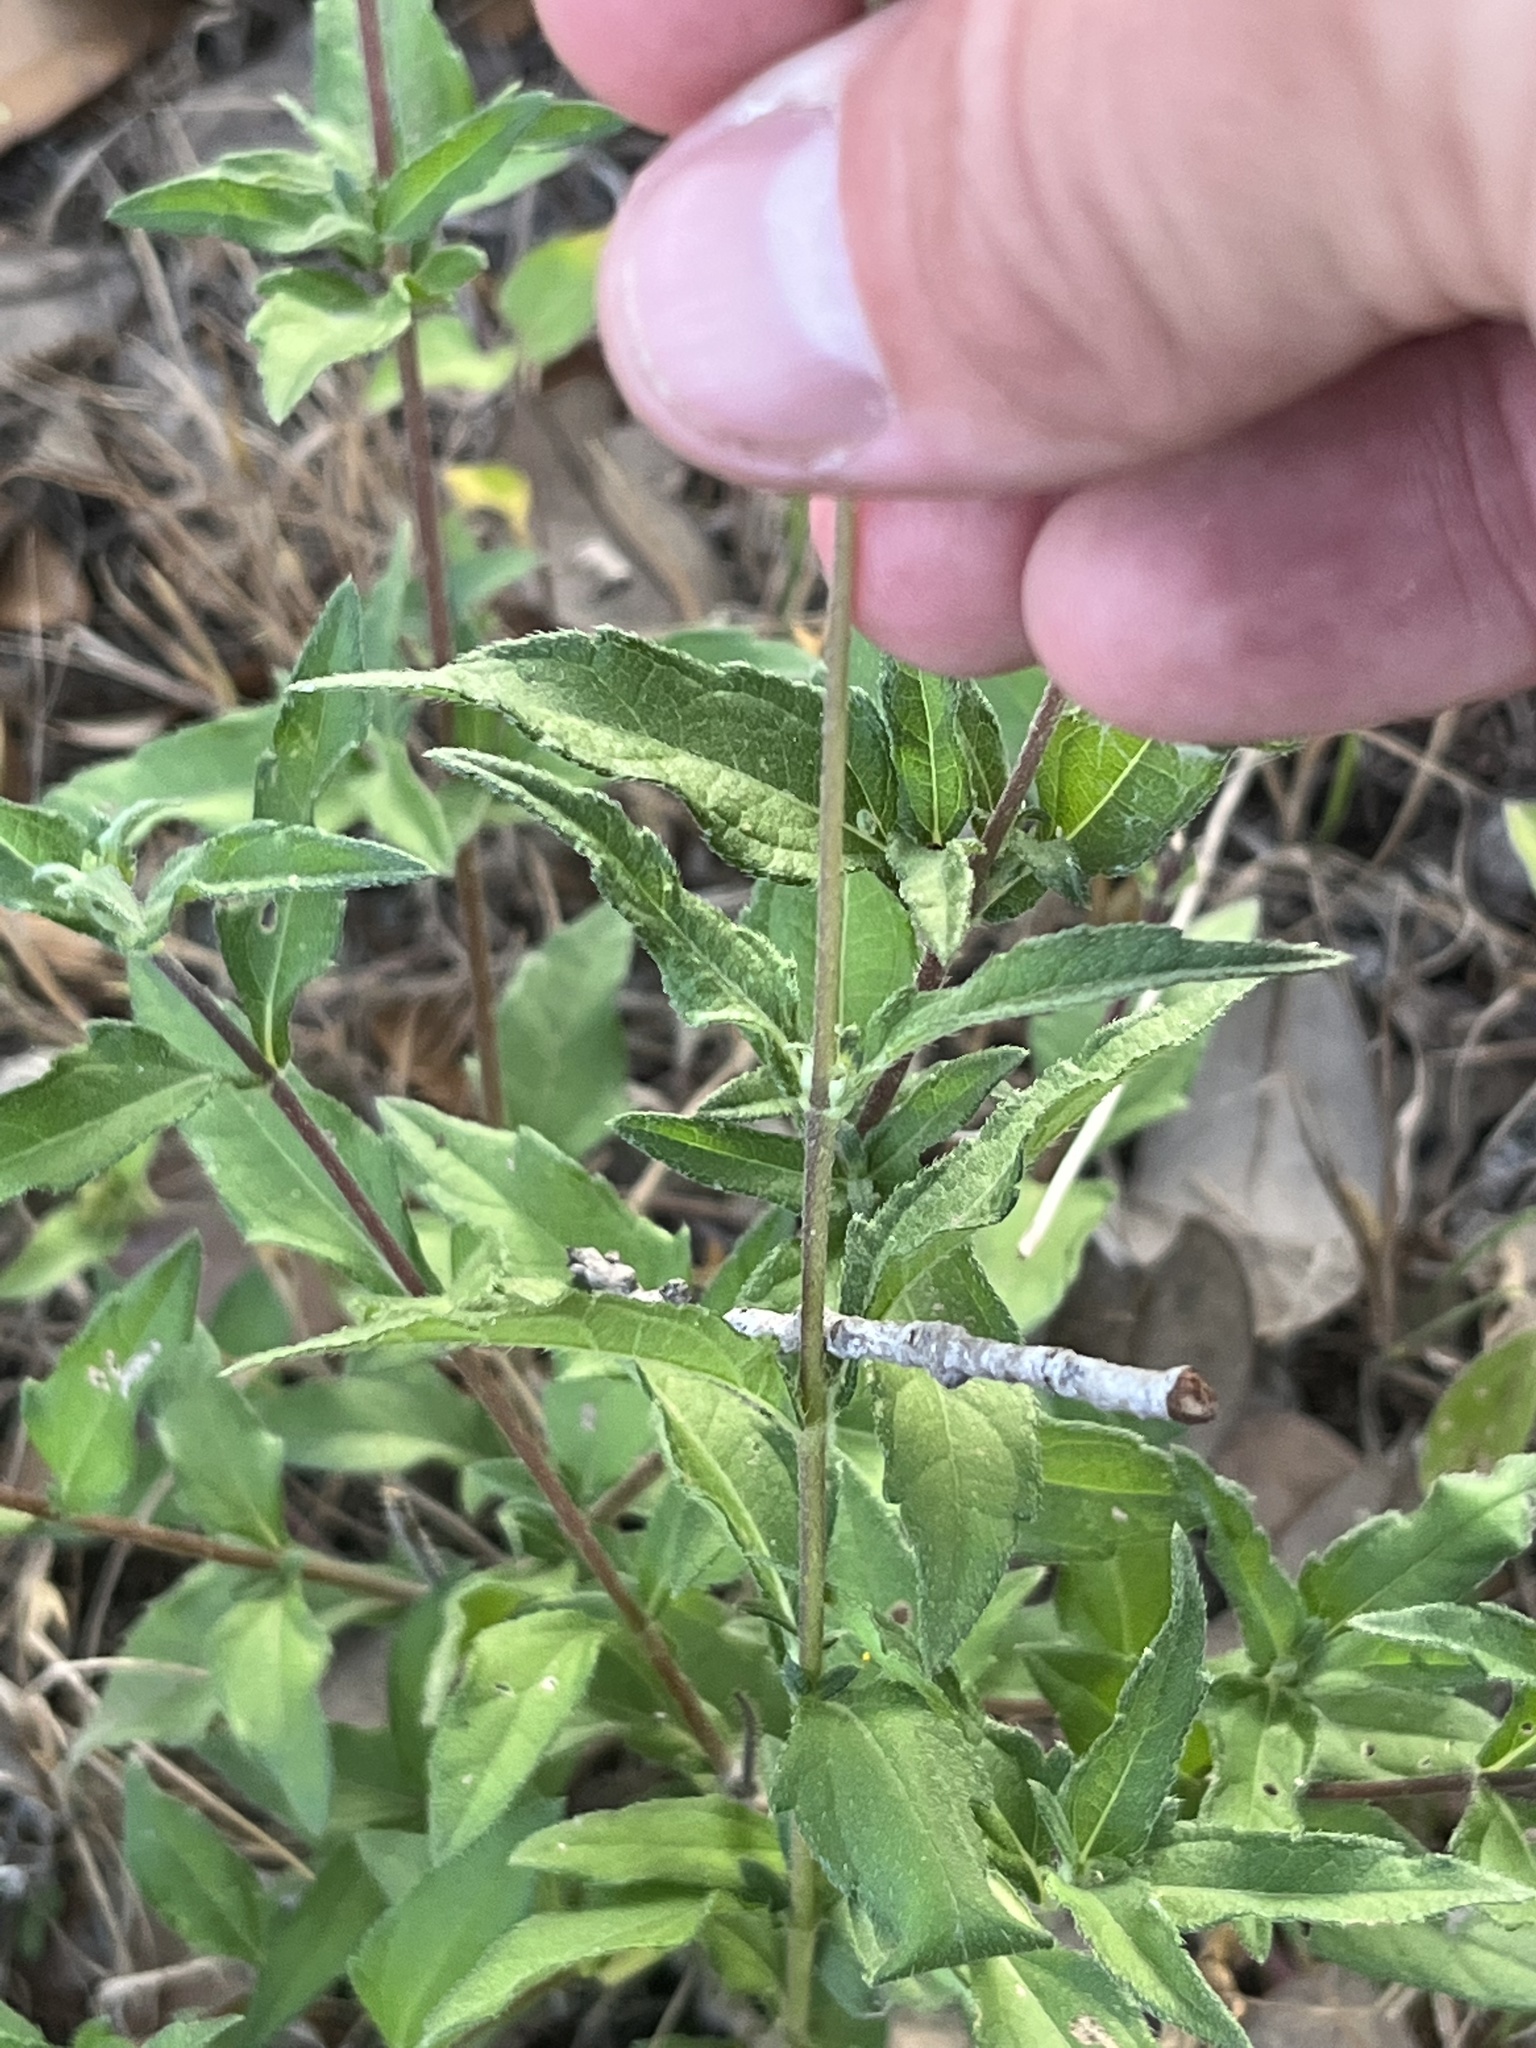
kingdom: Plantae
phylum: Tracheophyta
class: Magnoliopsida
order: Asterales
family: Asteraceae
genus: Wedelia
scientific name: Wedelia acapulcensis
